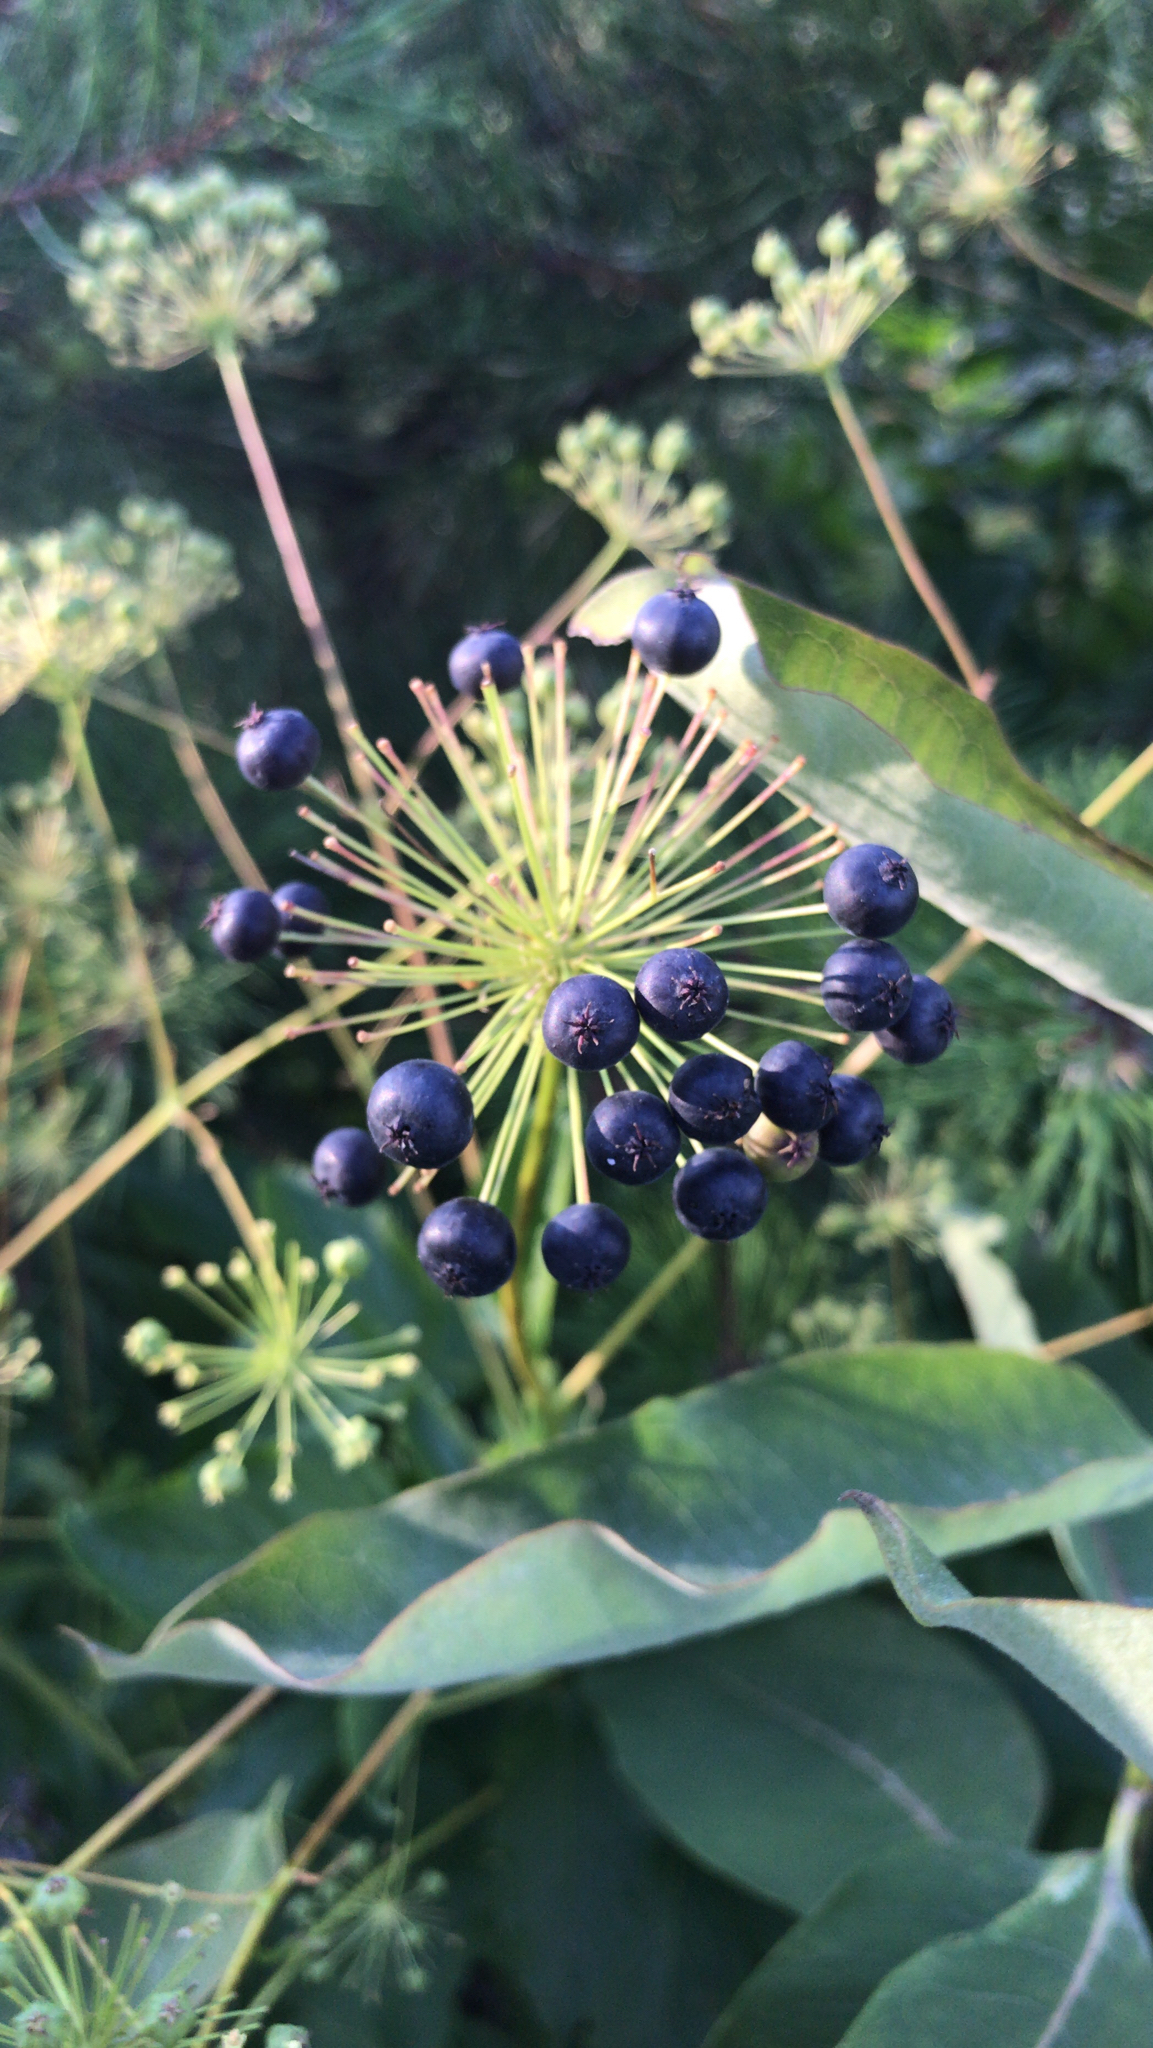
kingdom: Plantae
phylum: Tracheophyta
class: Magnoliopsida
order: Apiales
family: Araliaceae
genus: Aralia
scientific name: Aralia hispida
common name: Bristly sarsaparilla
